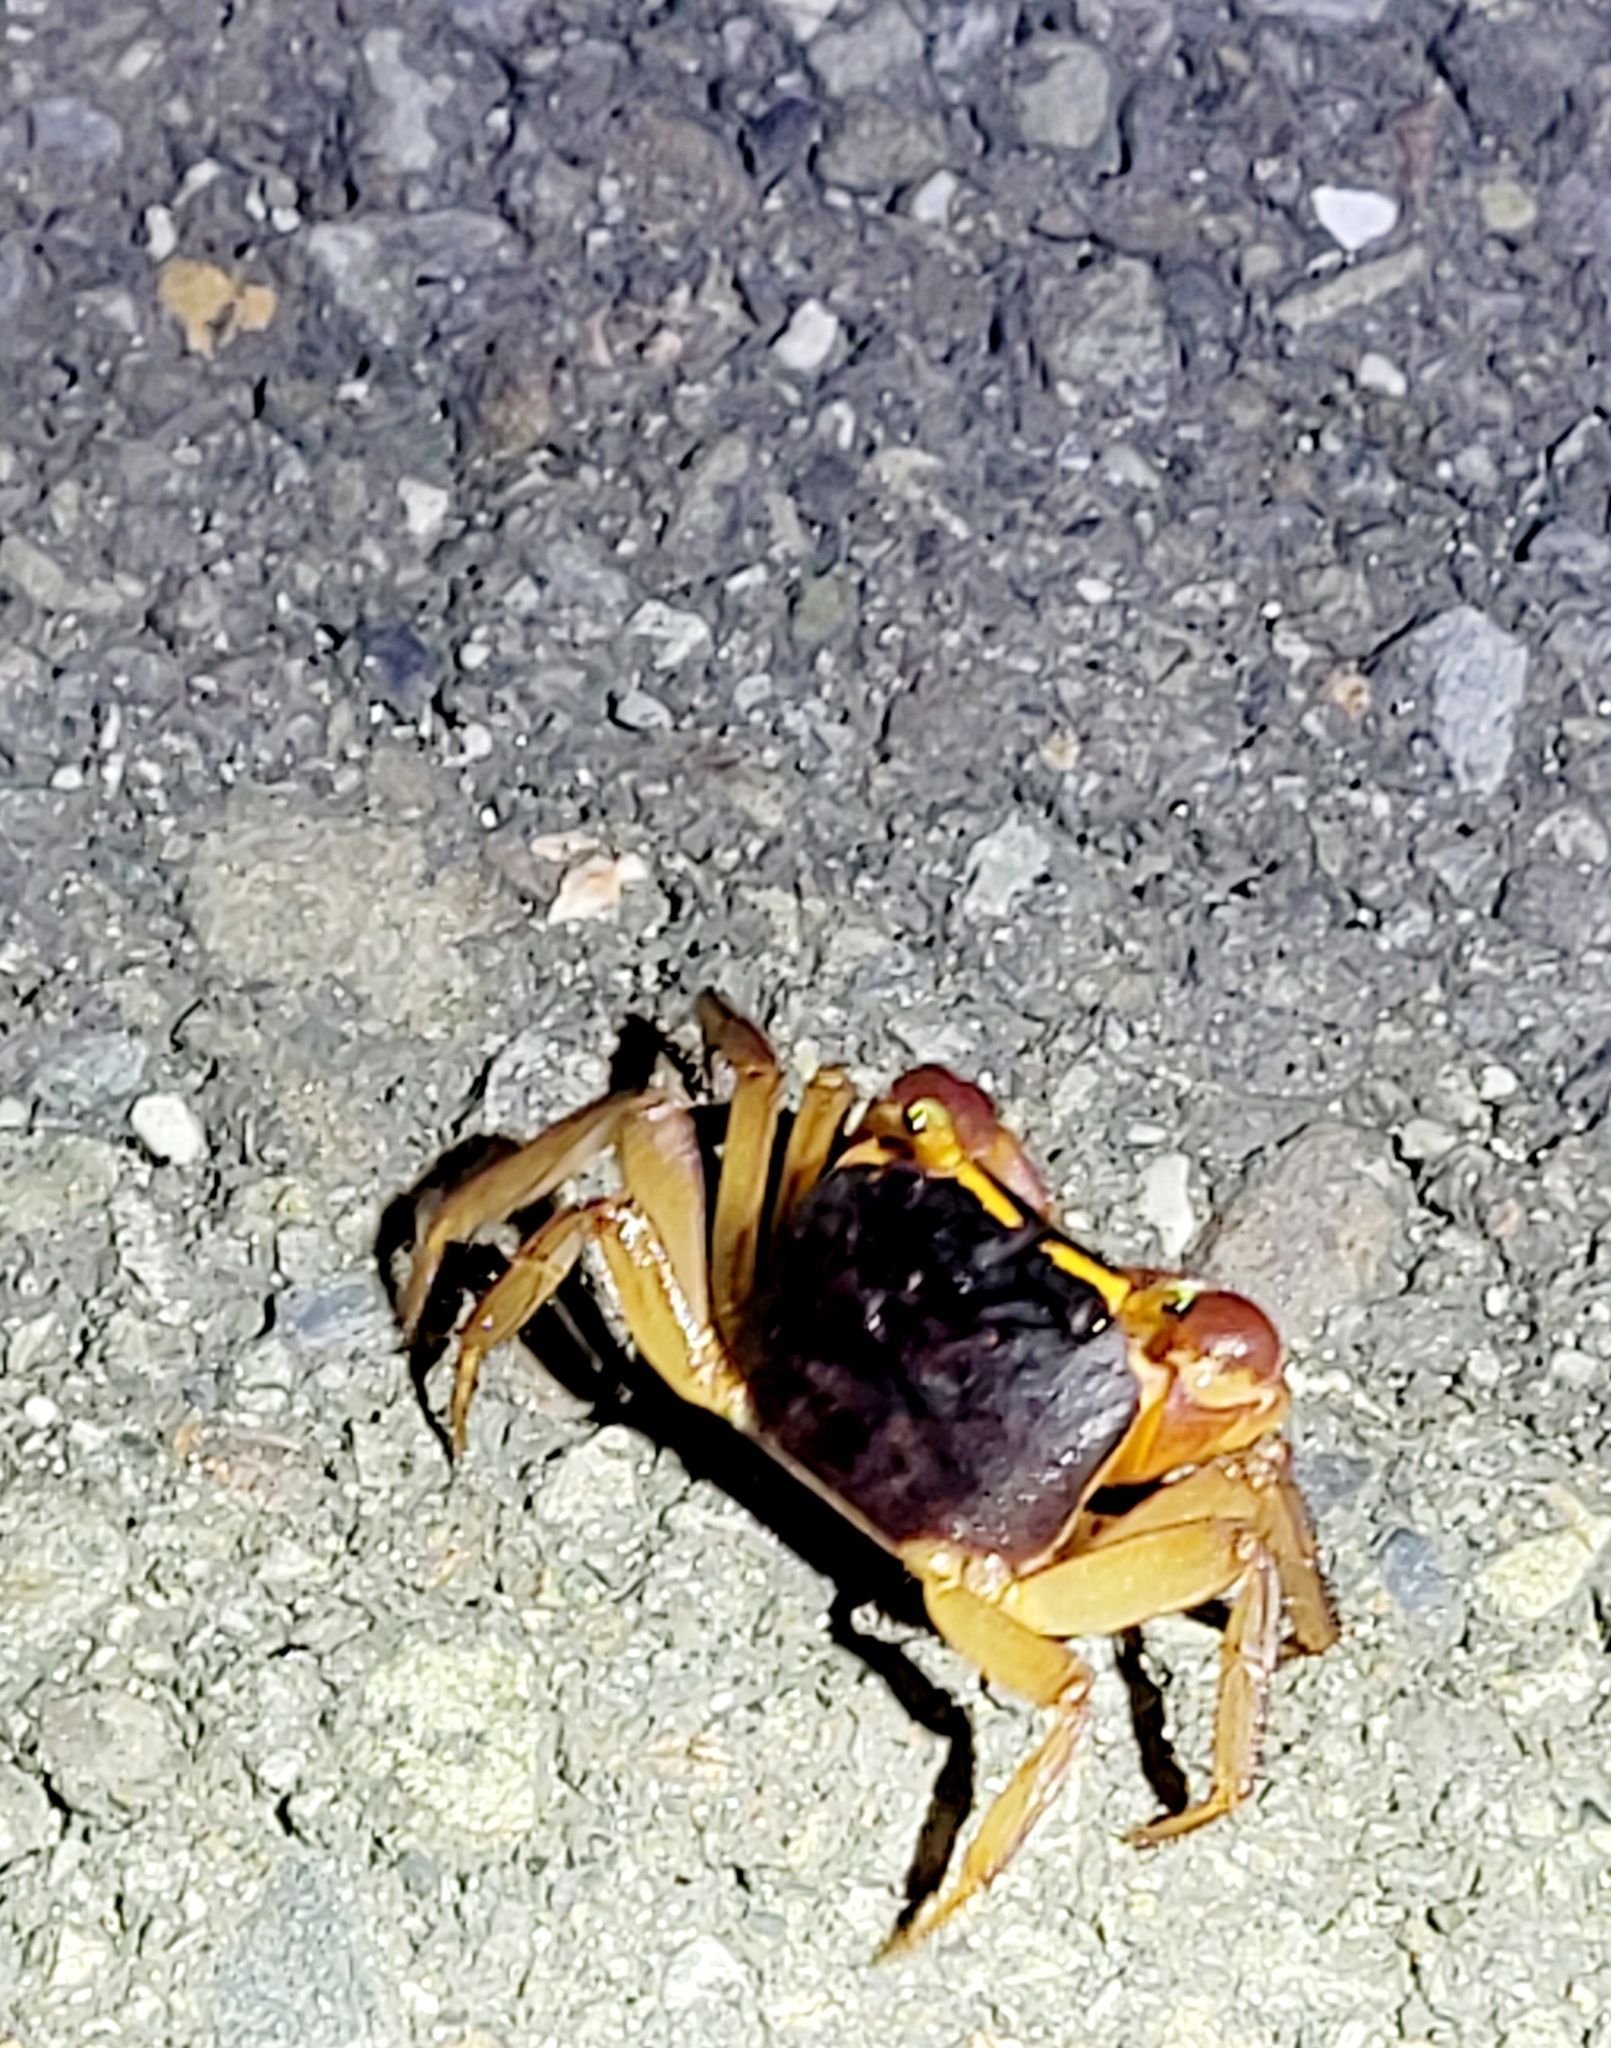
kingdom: Animalia
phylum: Arthropoda
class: Malacostraca
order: Decapoda
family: Sesarmidae
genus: Metasesarma
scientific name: Metasesarma aubryi
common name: Apple crab
